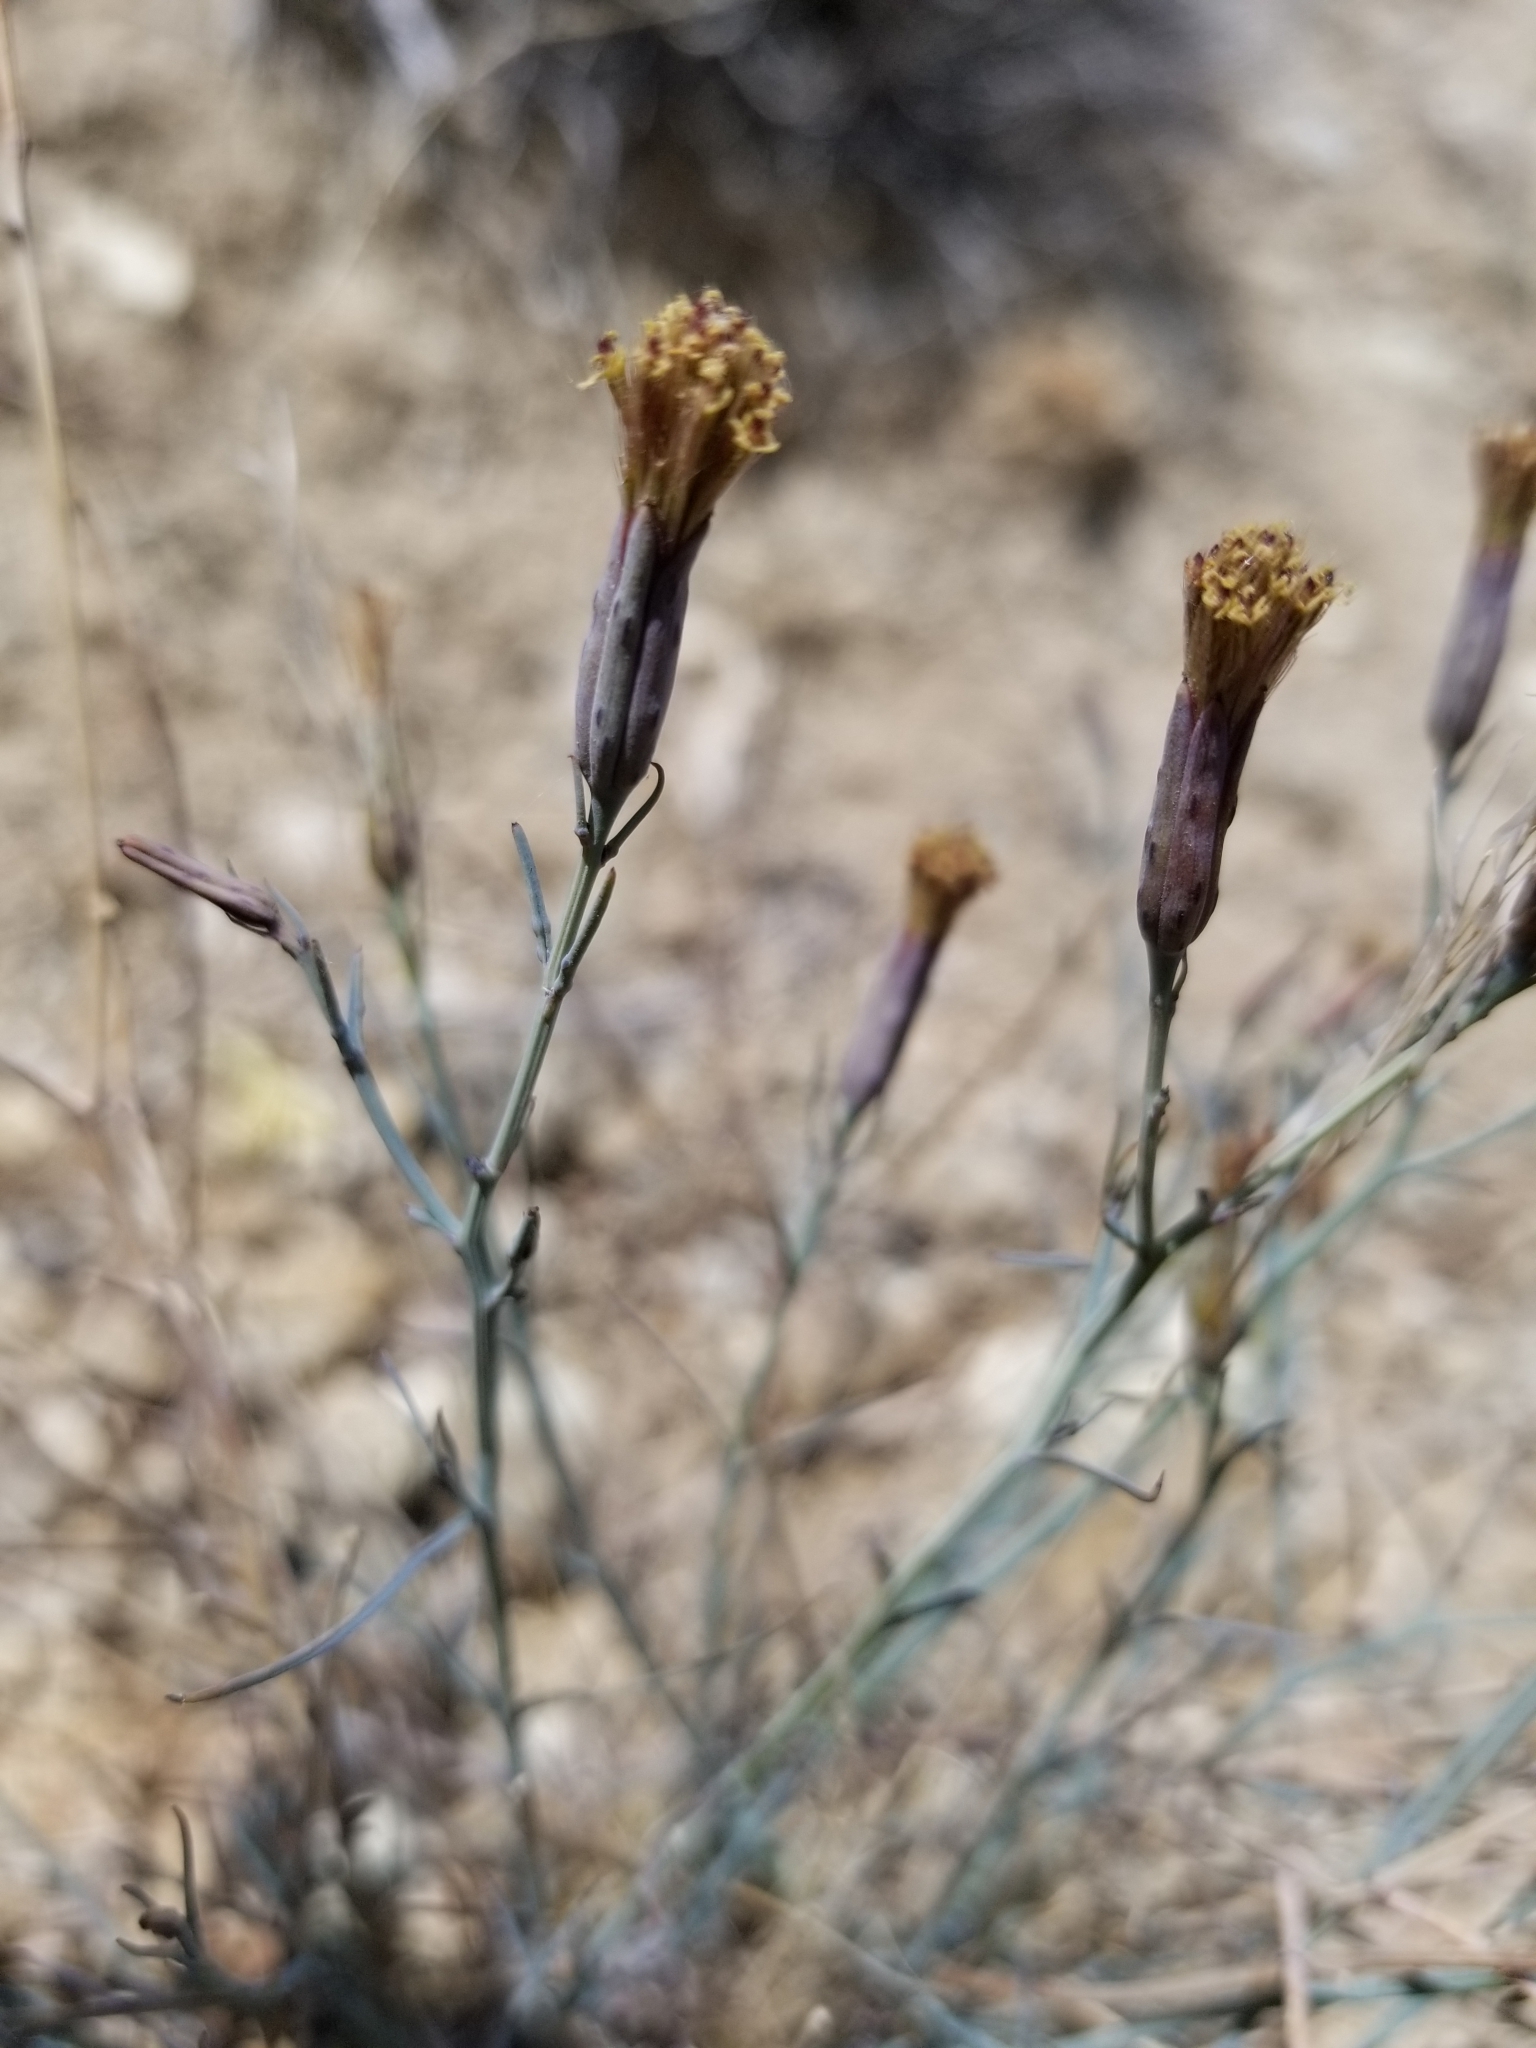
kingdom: Plantae
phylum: Tracheophyta
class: Magnoliopsida
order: Asterales
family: Asteraceae
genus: Porophyllum
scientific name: Porophyllum gracile
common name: Odora
